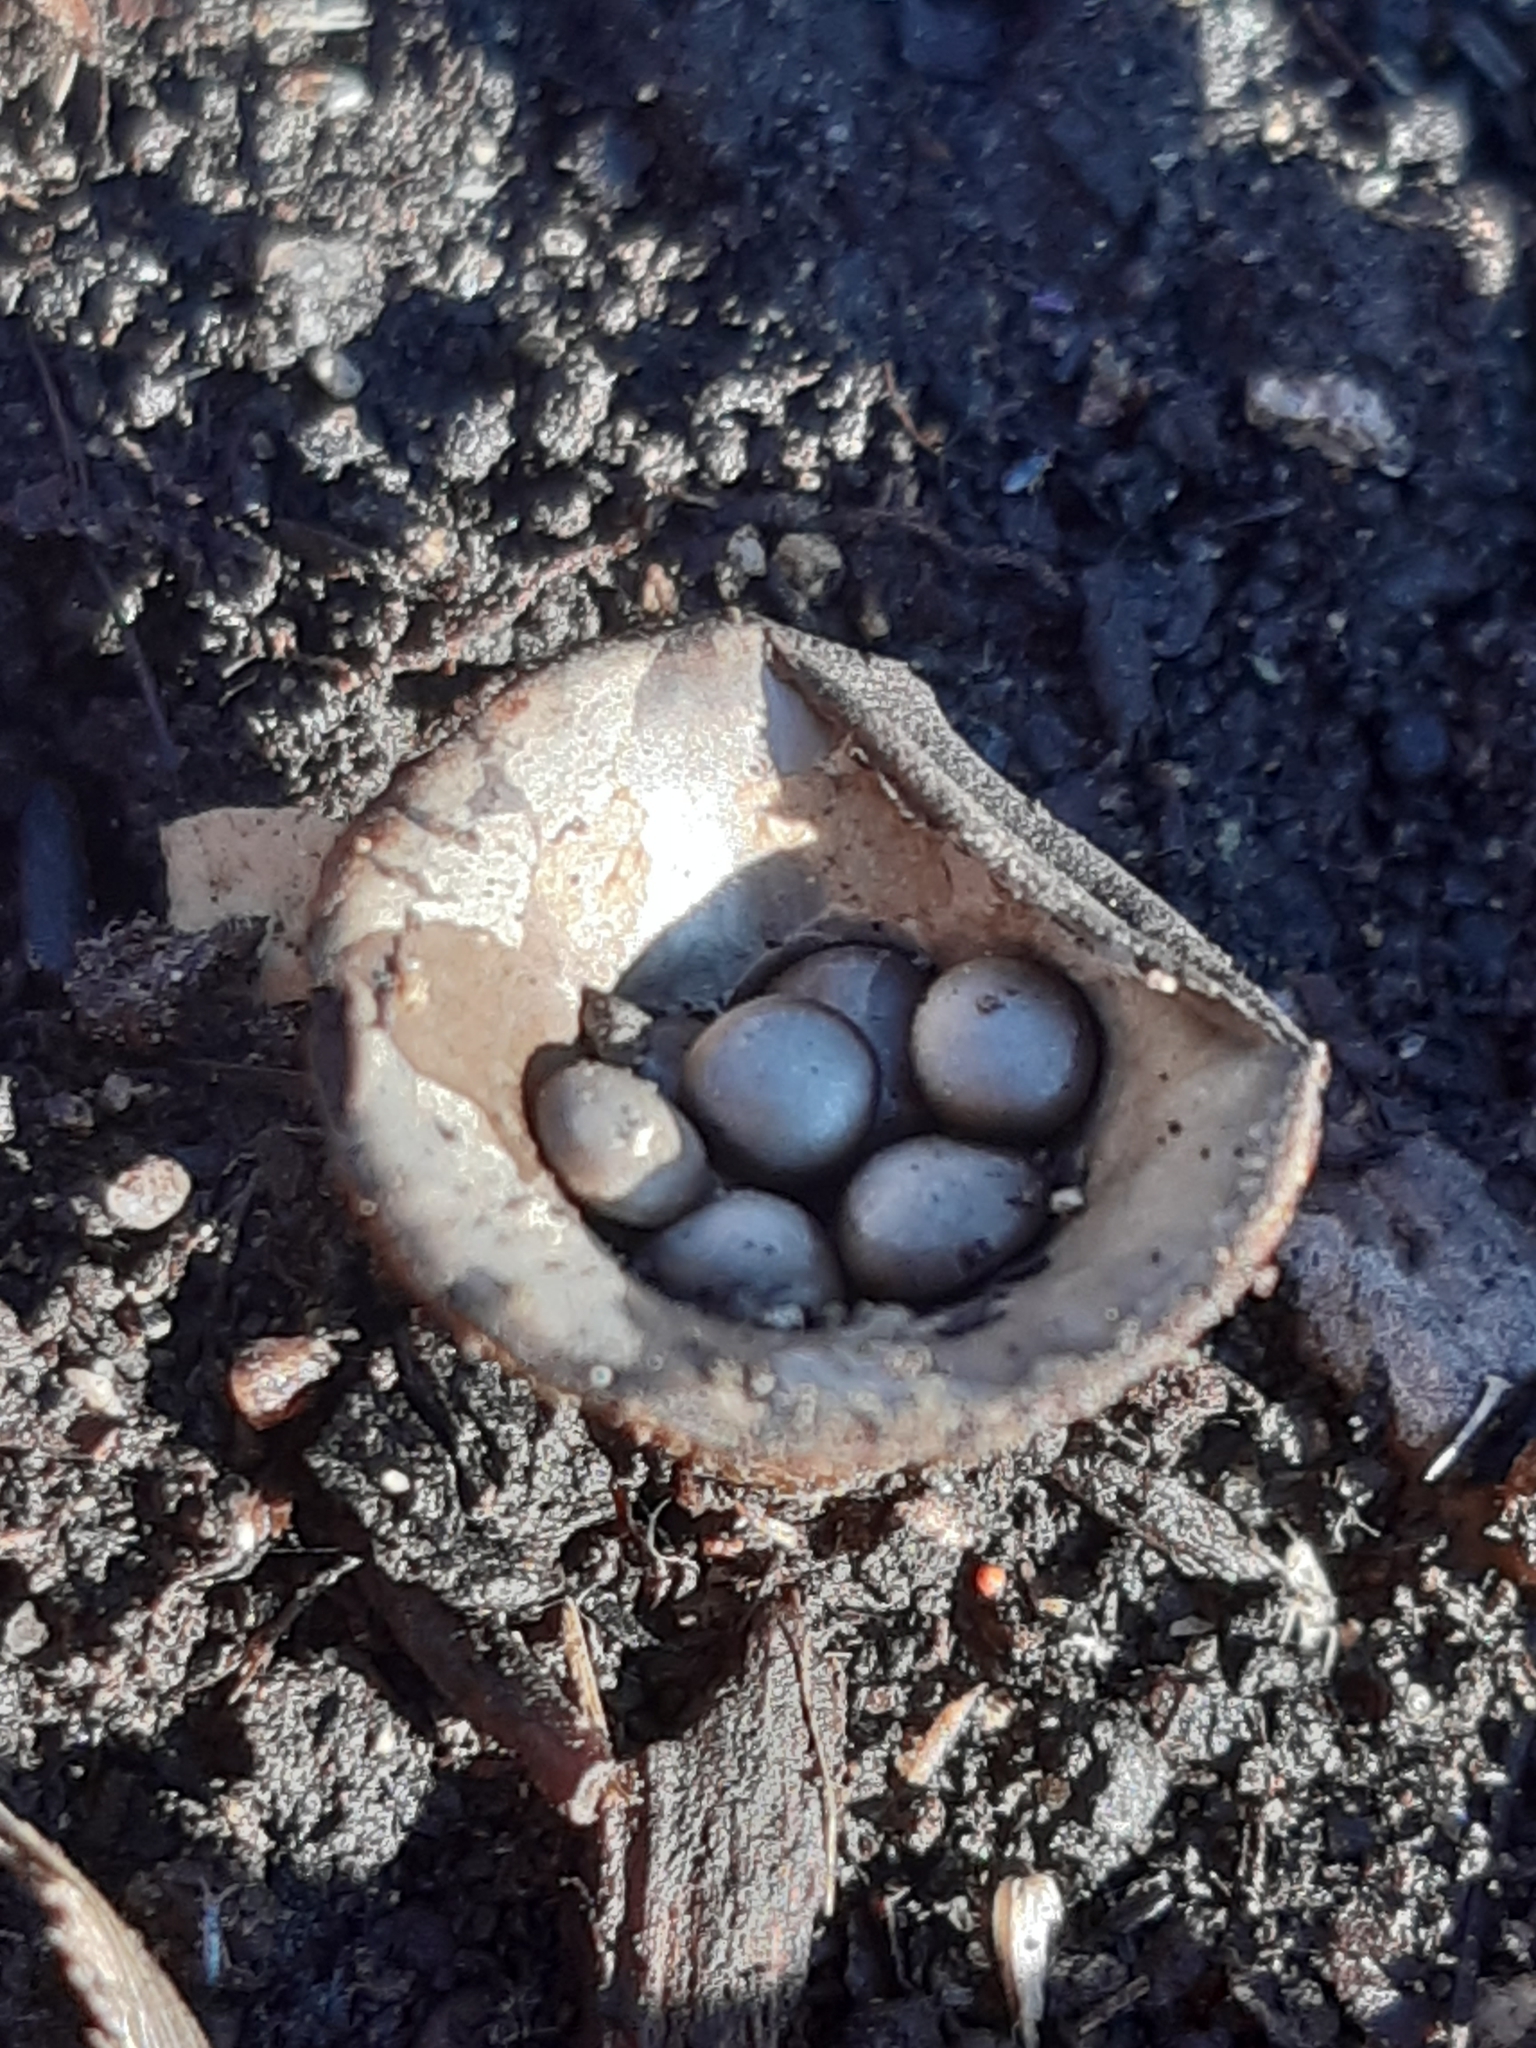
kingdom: Fungi
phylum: Basidiomycota
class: Agaricomycetes
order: Agaricales
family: Agaricaceae
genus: Cyathus
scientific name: Cyathus olla
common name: Field bird's nest
